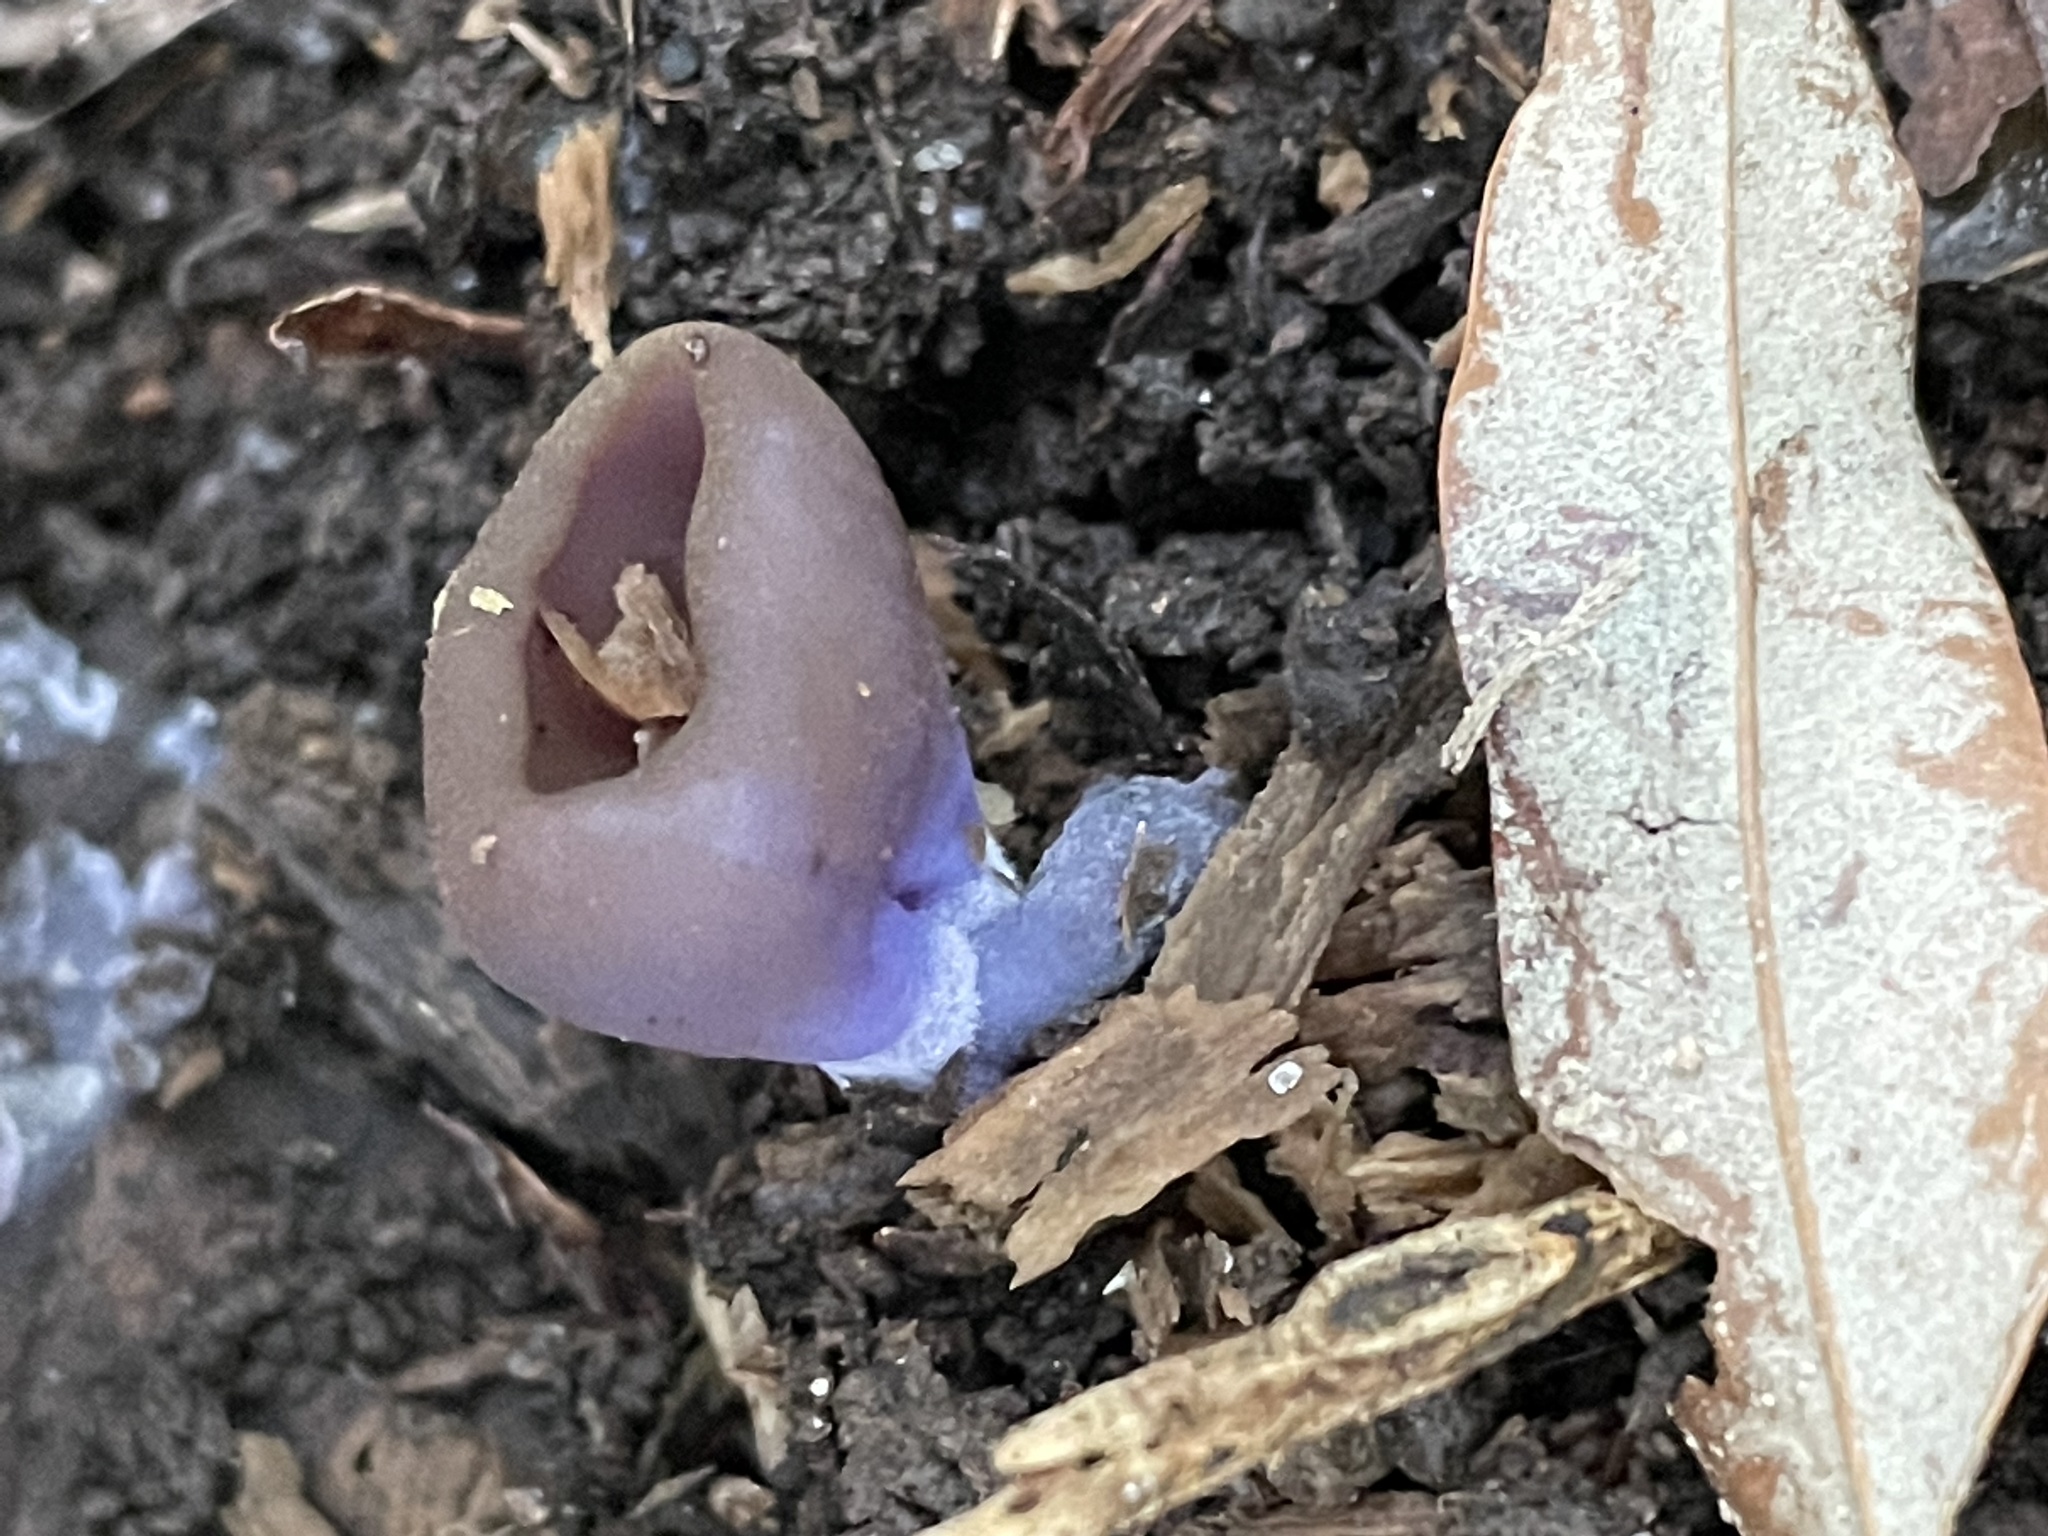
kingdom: Fungi
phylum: Ascomycota
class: Pezizomycetes
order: Pezizales
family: Pezizaceae
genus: Phylloscypha
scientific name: Phylloscypha phyllogena
